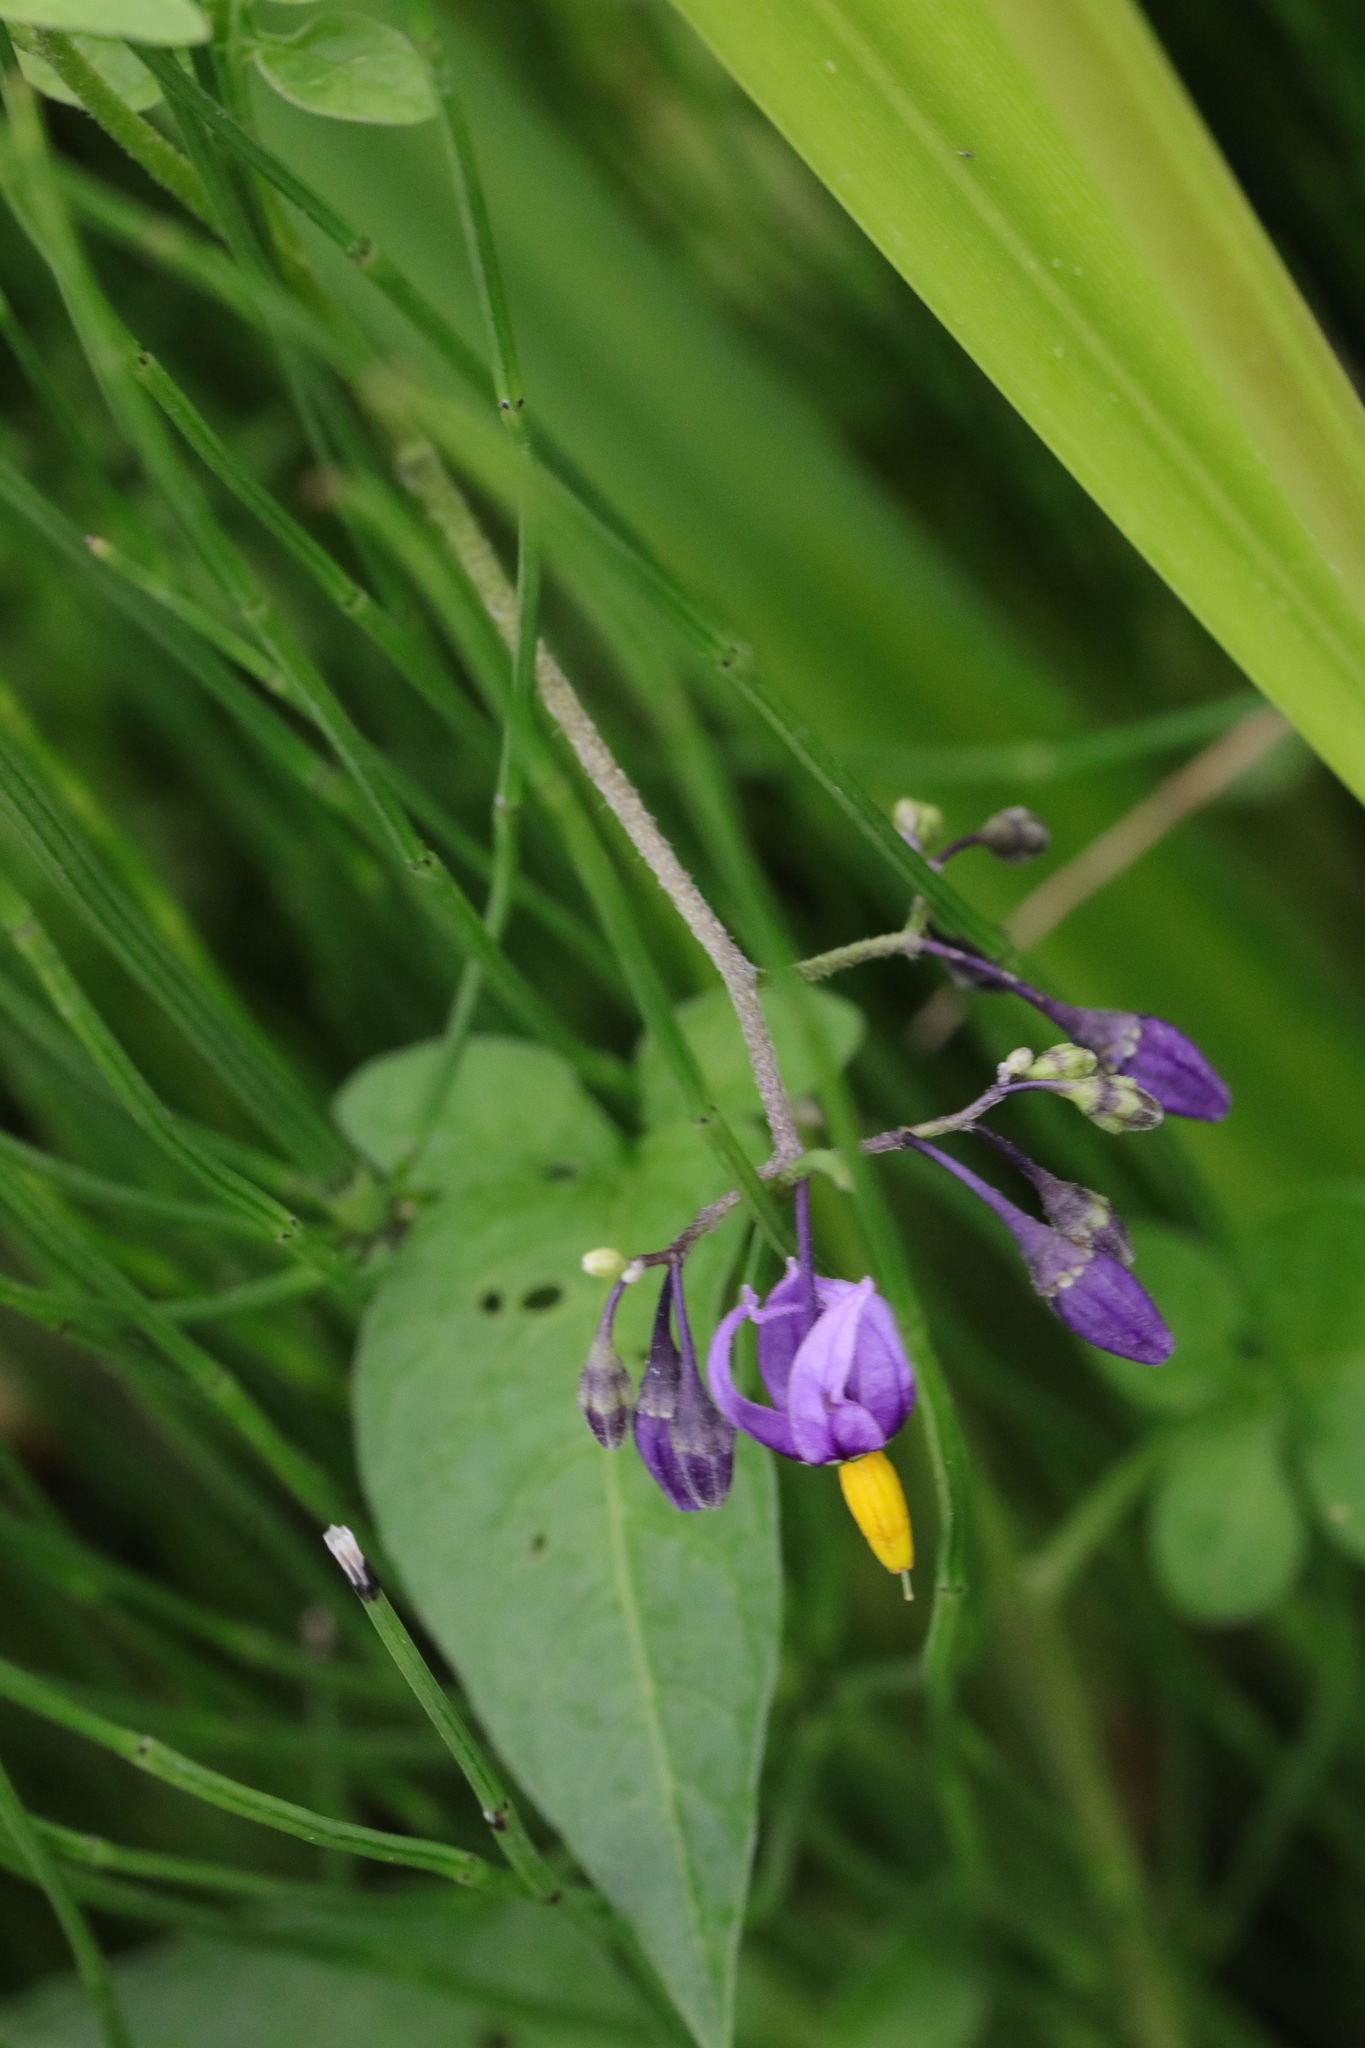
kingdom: Plantae
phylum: Tracheophyta
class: Magnoliopsida
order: Solanales
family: Solanaceae
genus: Solanum
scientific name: Solanum dulcamara
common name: Climbing nightshade
